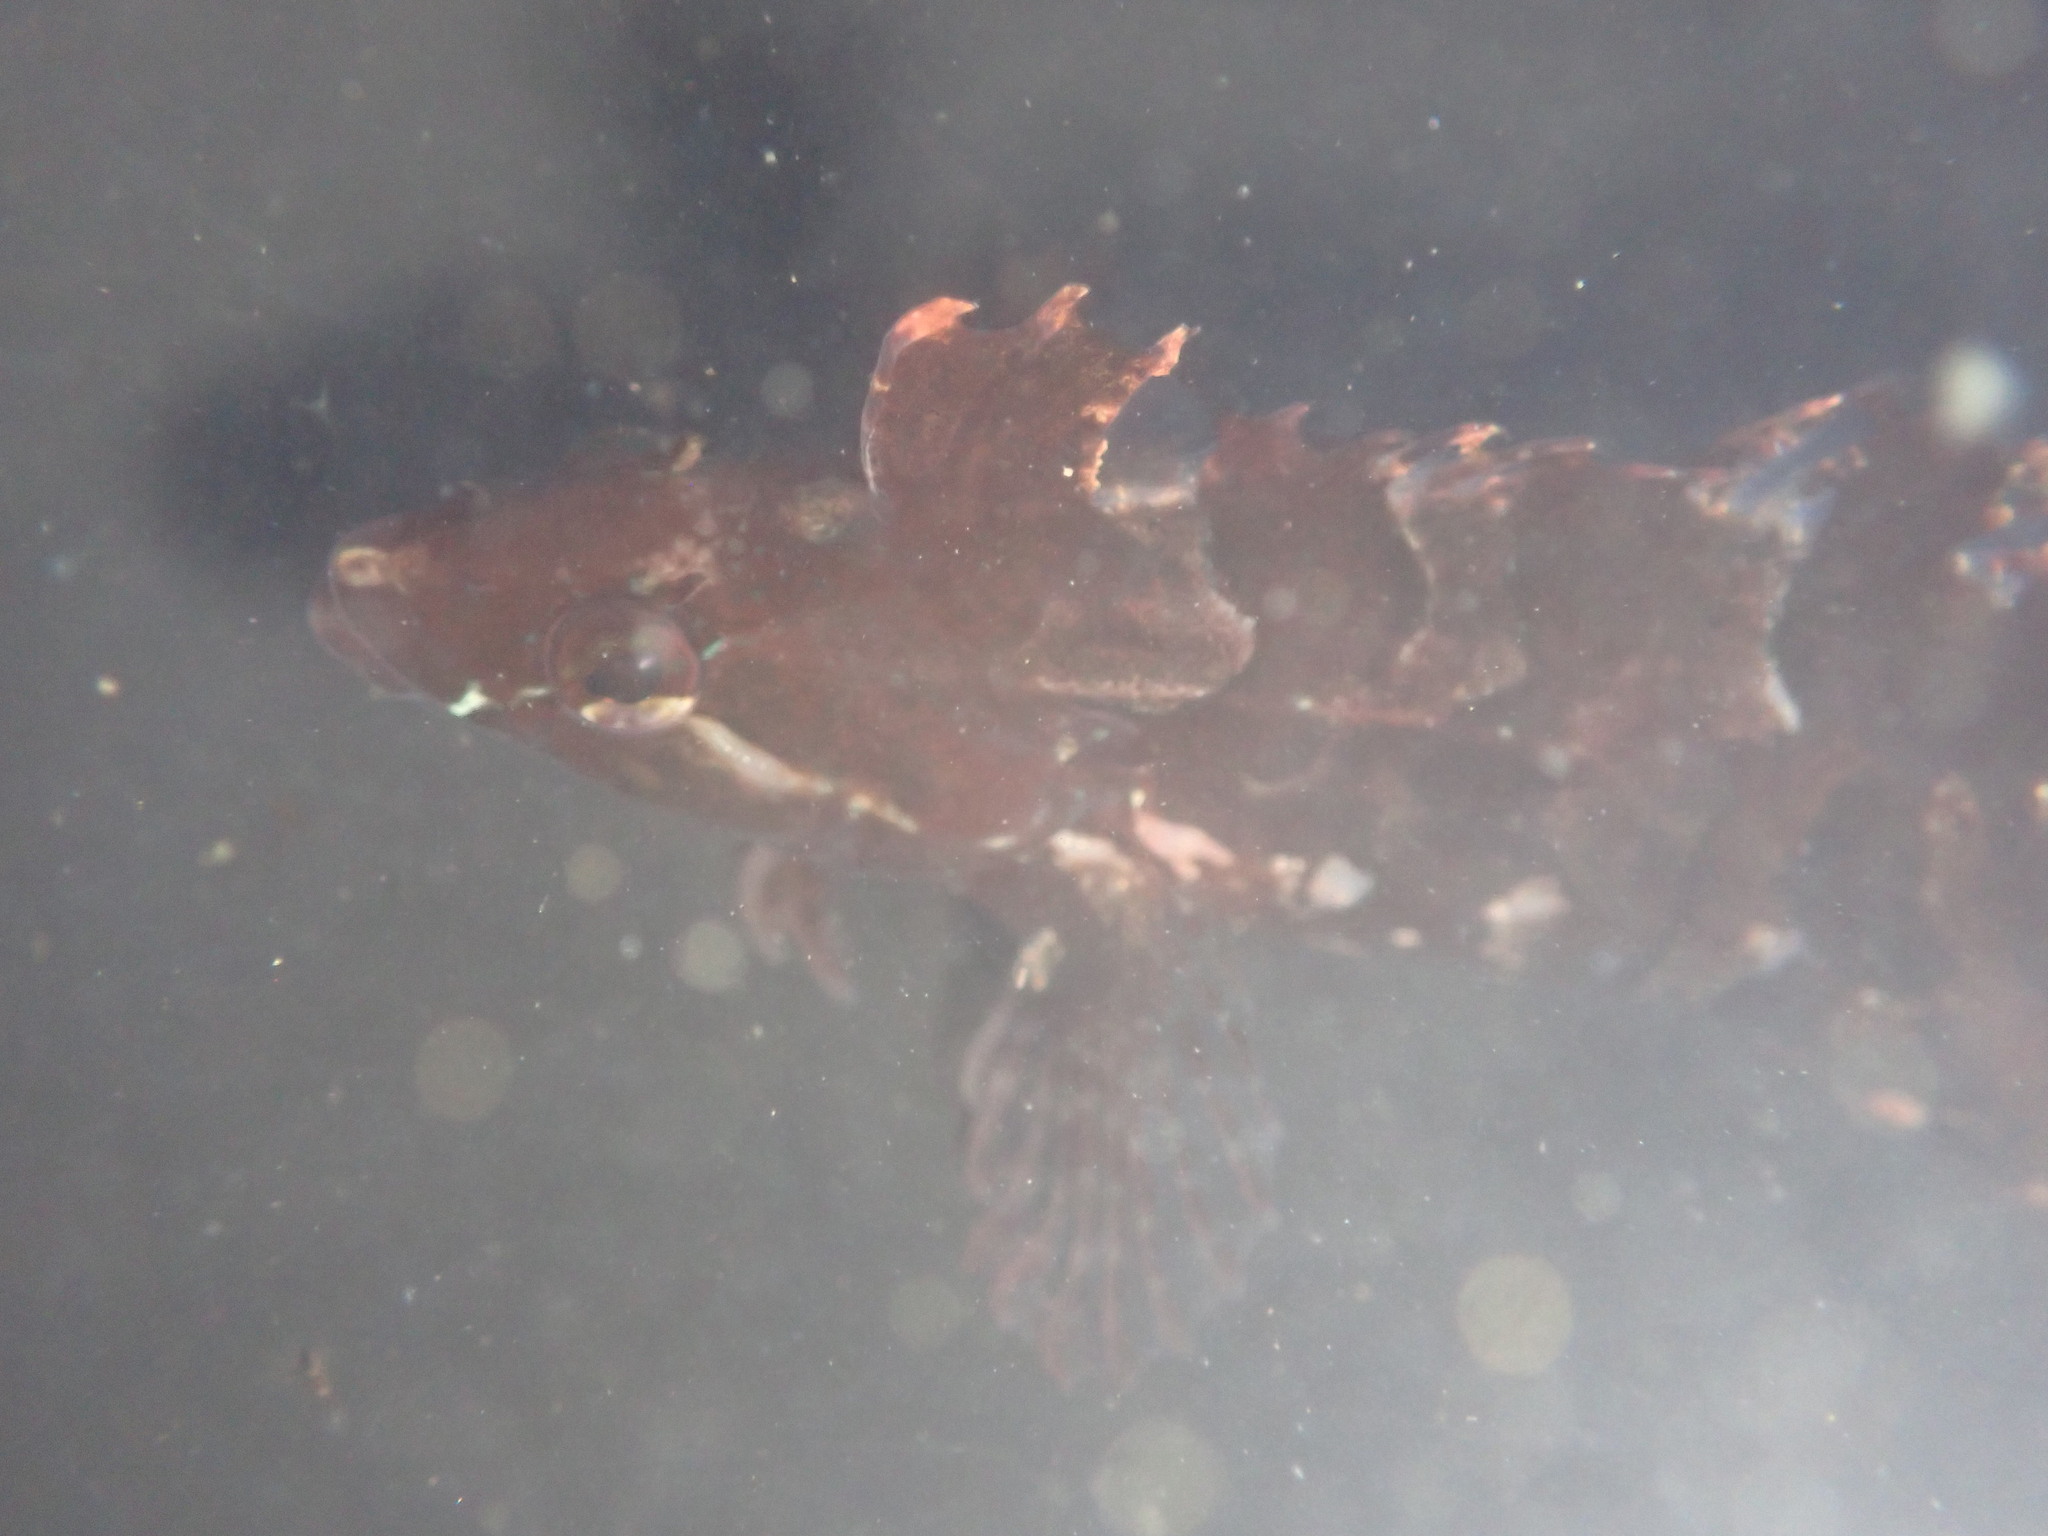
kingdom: Animalia
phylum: Chordata
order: Perciformes
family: Clinidae
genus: Gibbonsia
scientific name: Gibbonsia metzi
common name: Striped kelpfish
